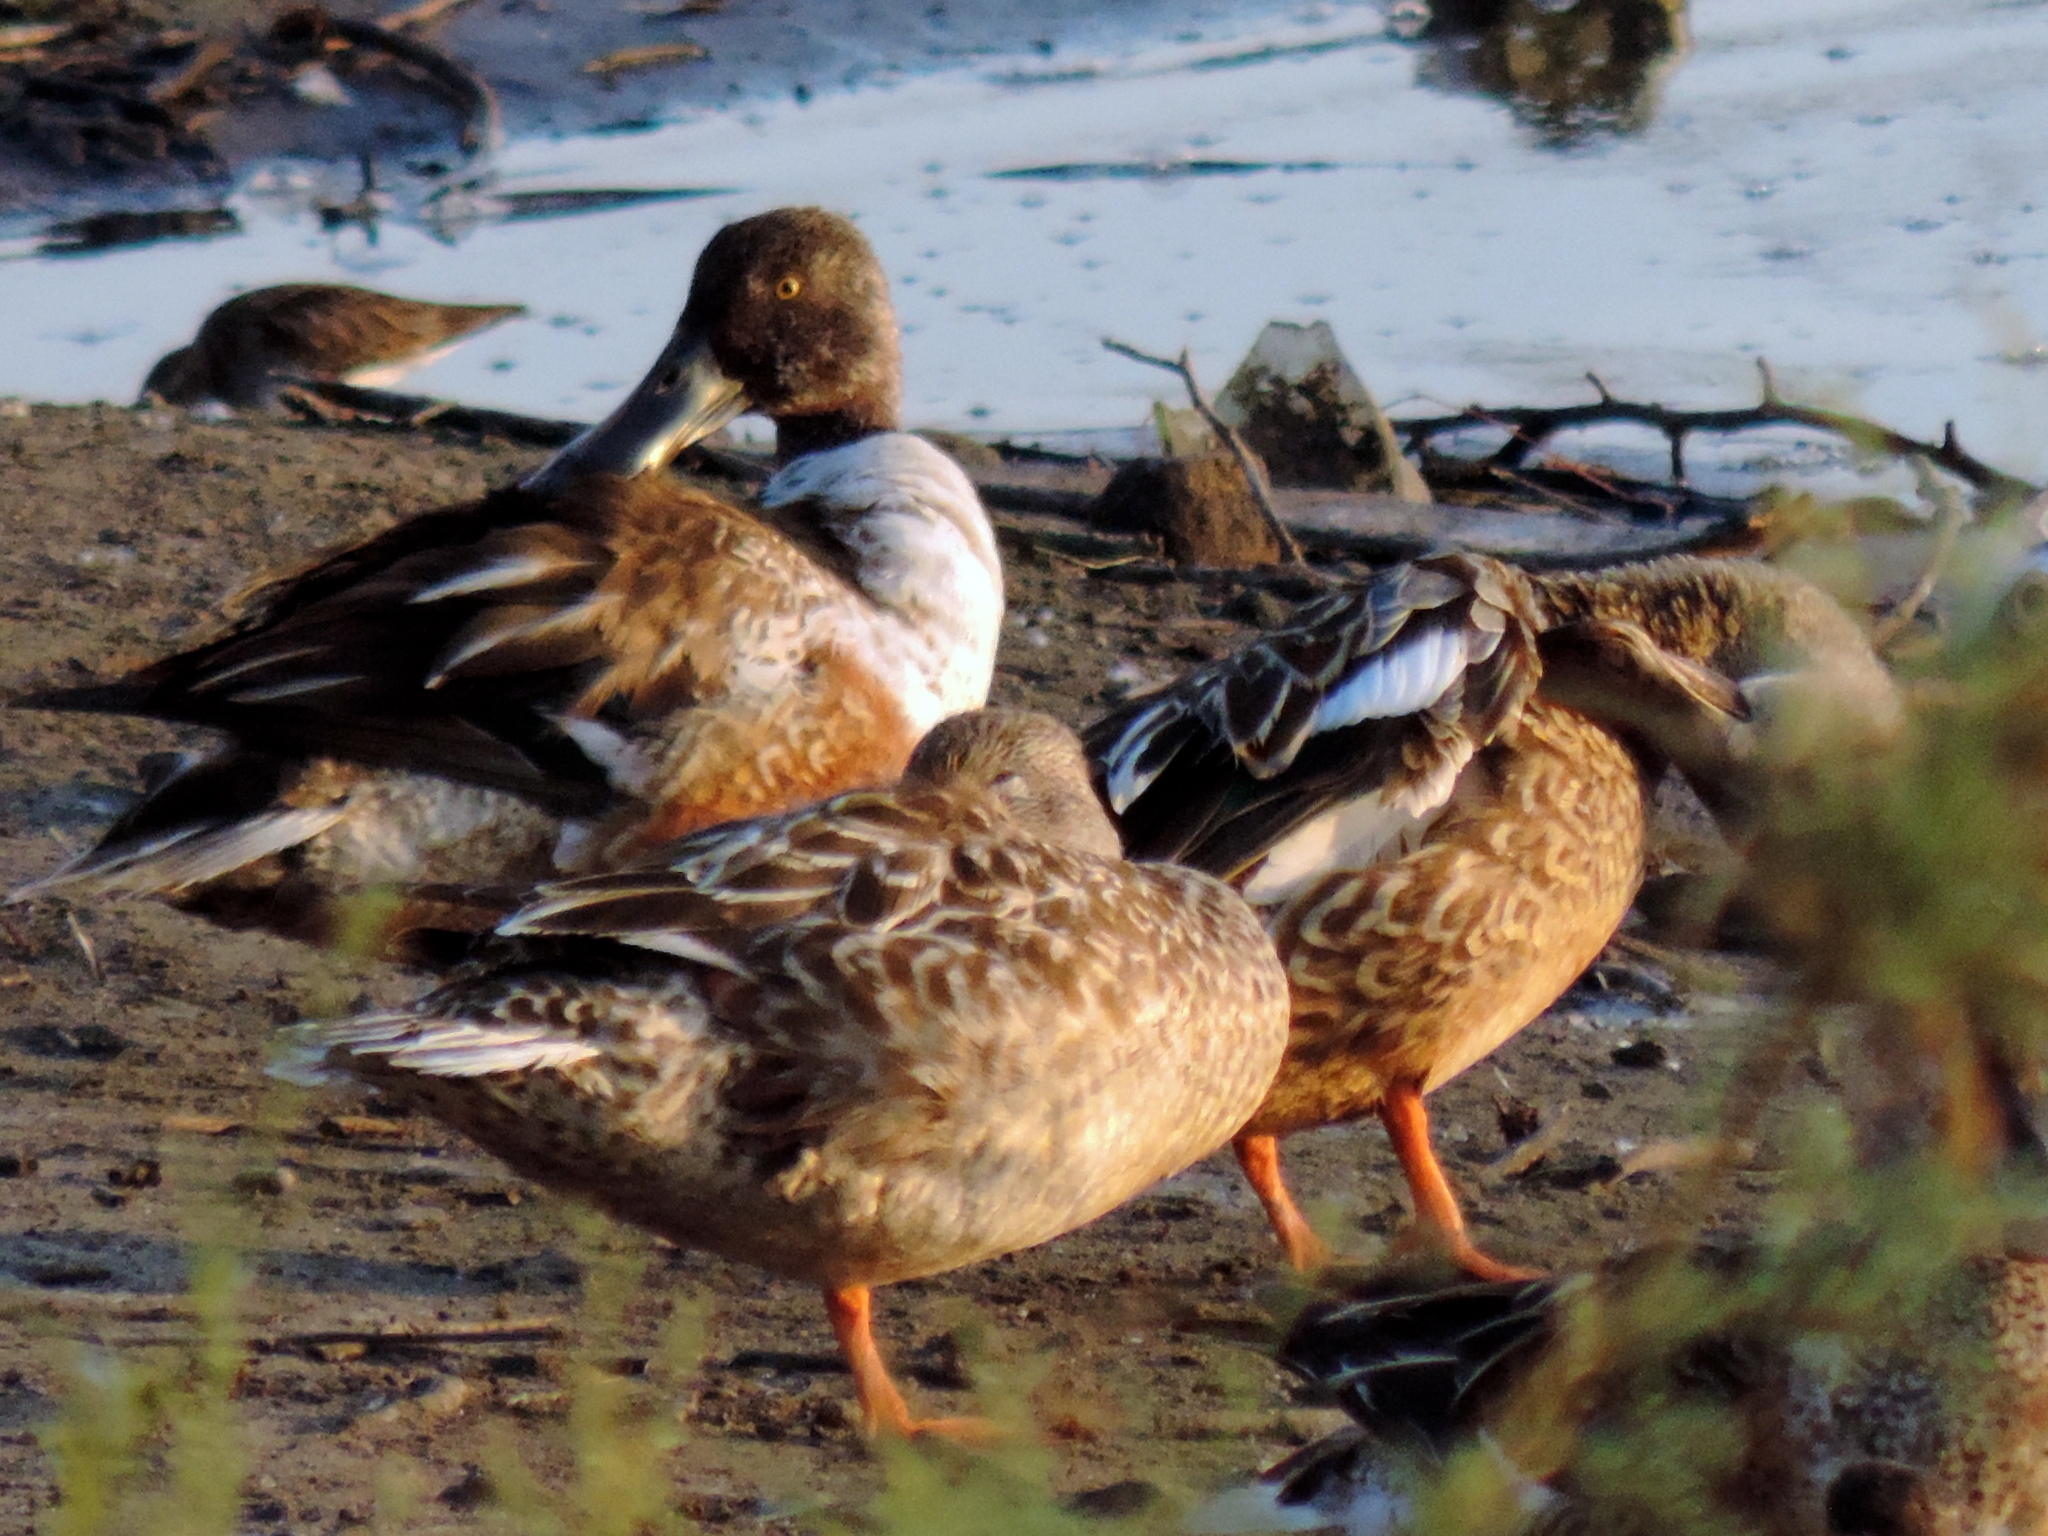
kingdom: Animalia
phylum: Chordata
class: Aves
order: Anseriformes
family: Anatidae
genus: Spatula
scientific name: Spatula clypeata
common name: Northern shoveler
